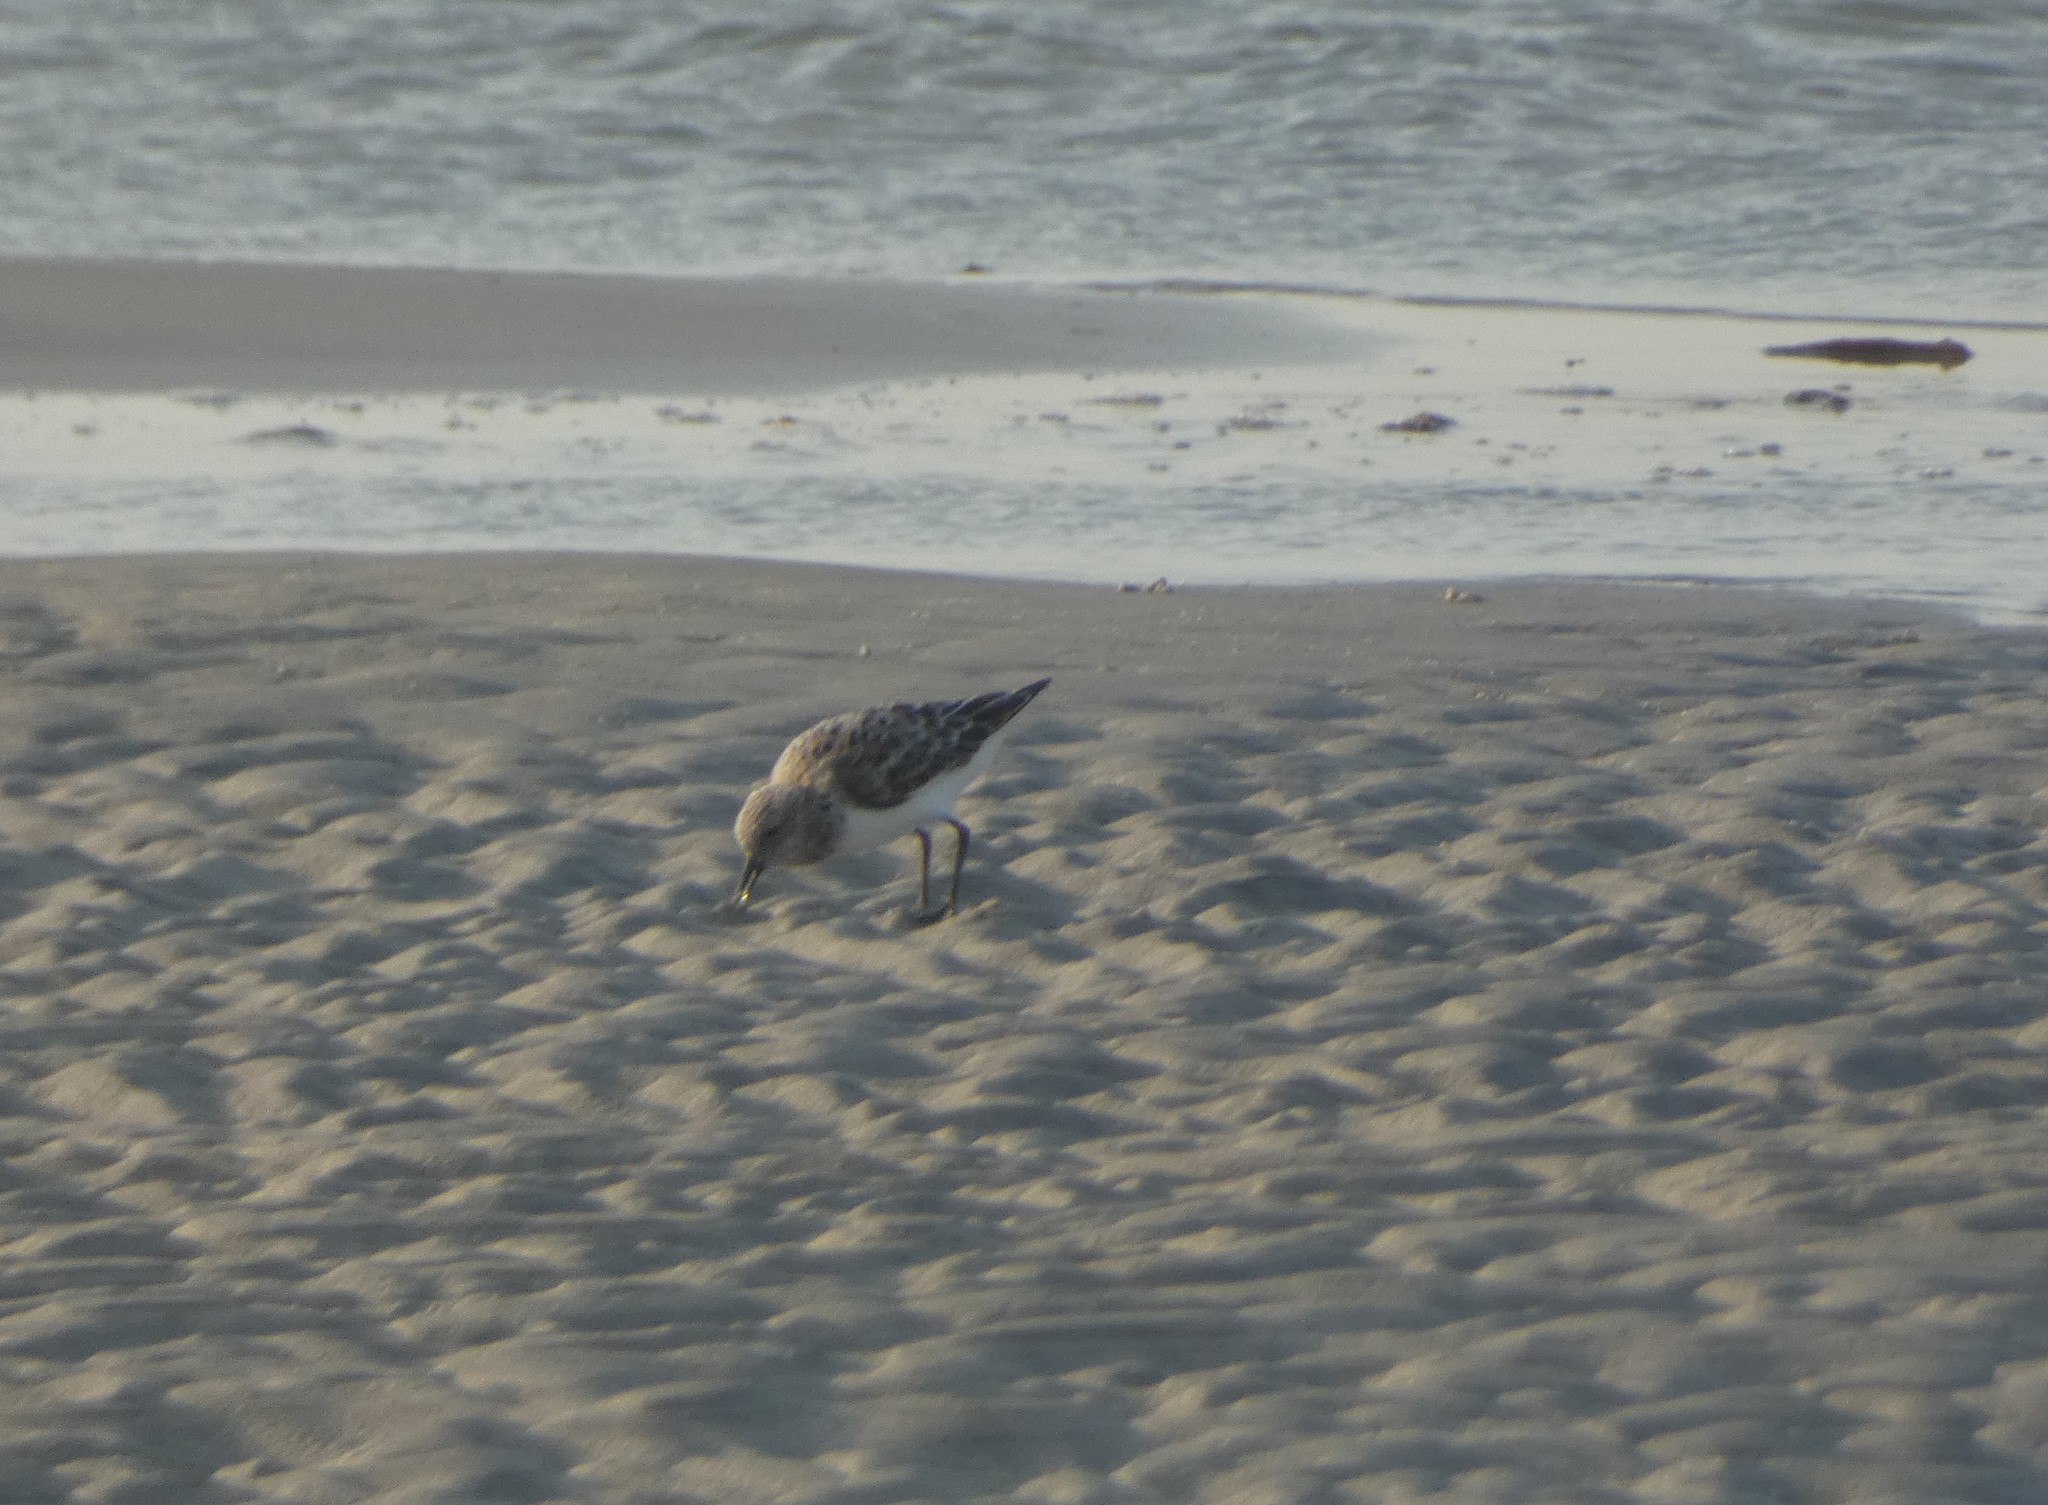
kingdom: Animalia
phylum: Chordata
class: Aves
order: Charadriiformes
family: Scolopacidae
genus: Calidris
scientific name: Calidris alba
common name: Sanderling
